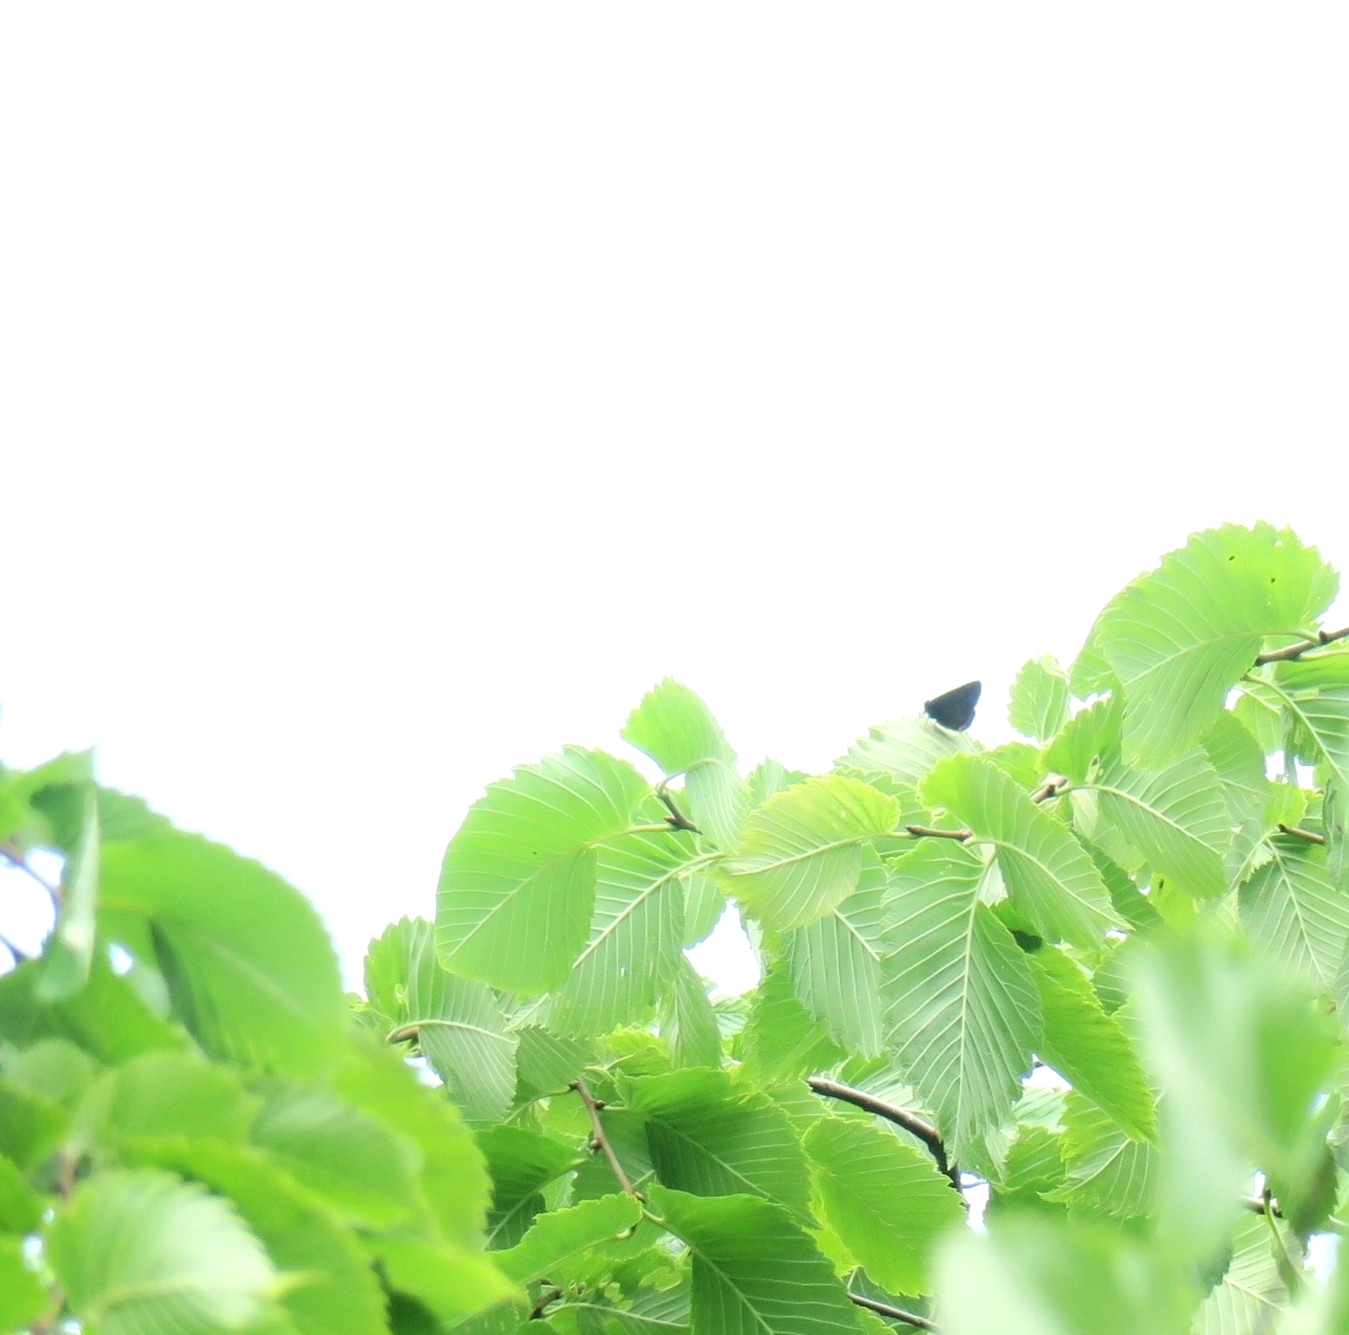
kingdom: Animalia
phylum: Arthropoda
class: Insecta
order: Lepidoptera
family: Lycaenidae
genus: Satyrium
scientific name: Satyrium w-album
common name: White-letter hairstreak
